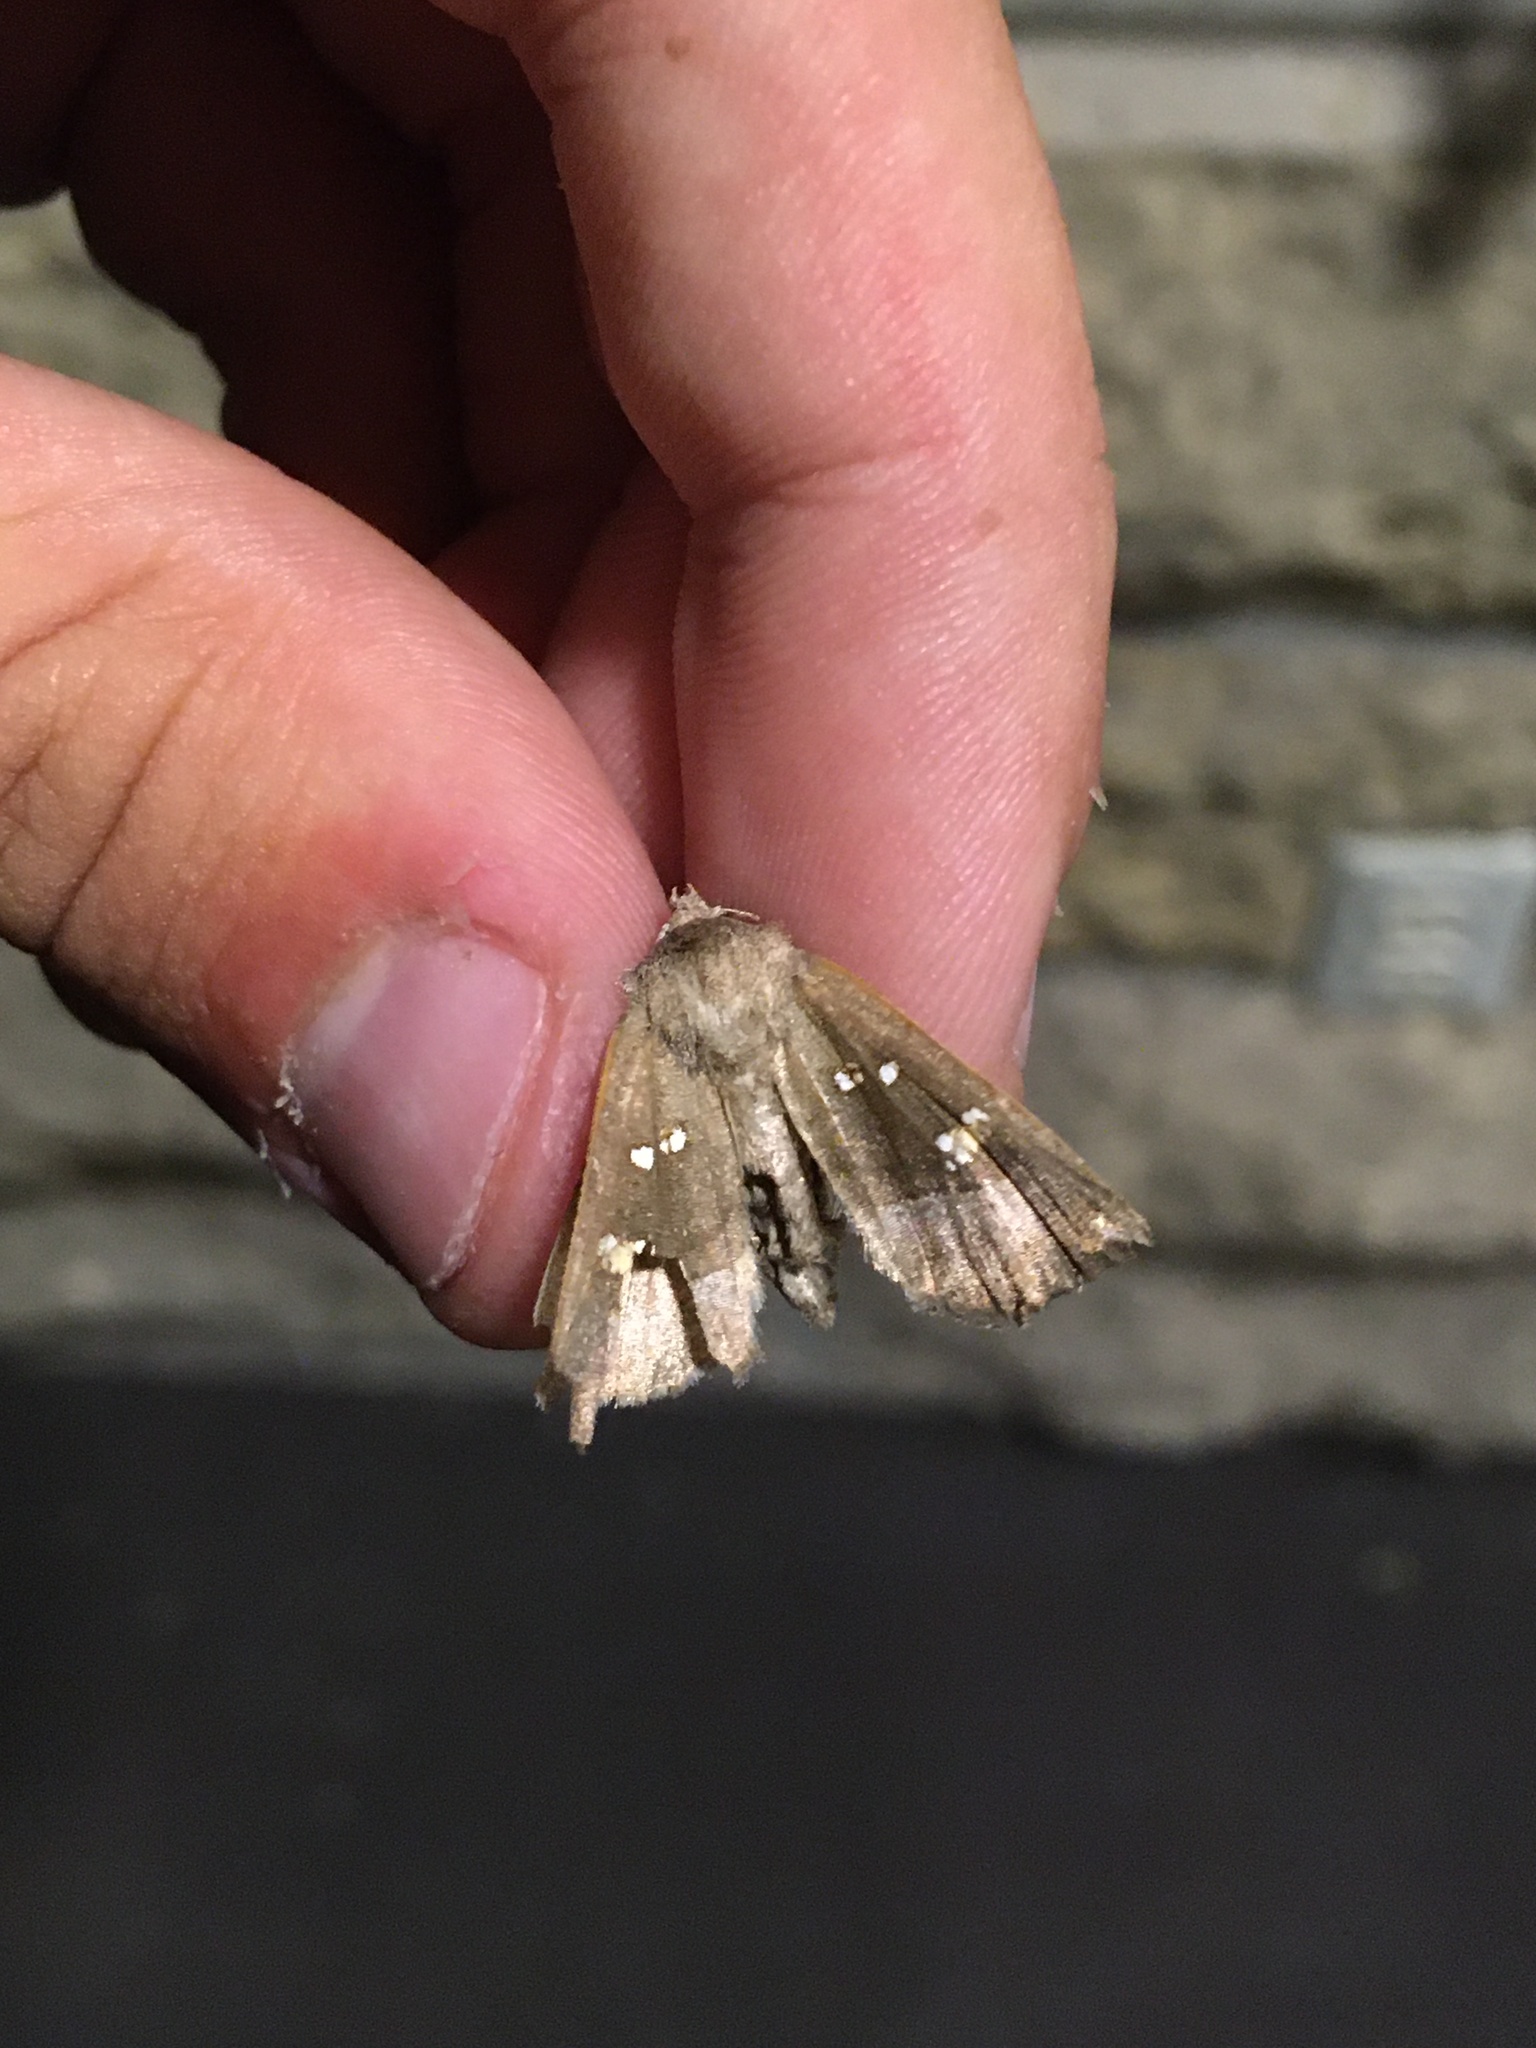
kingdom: Animalia
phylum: Arthropoda
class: Insecta
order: Lepidoptera
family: Noctuidae
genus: Papaipema
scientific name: Papaipema nebris
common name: Stalk borer
